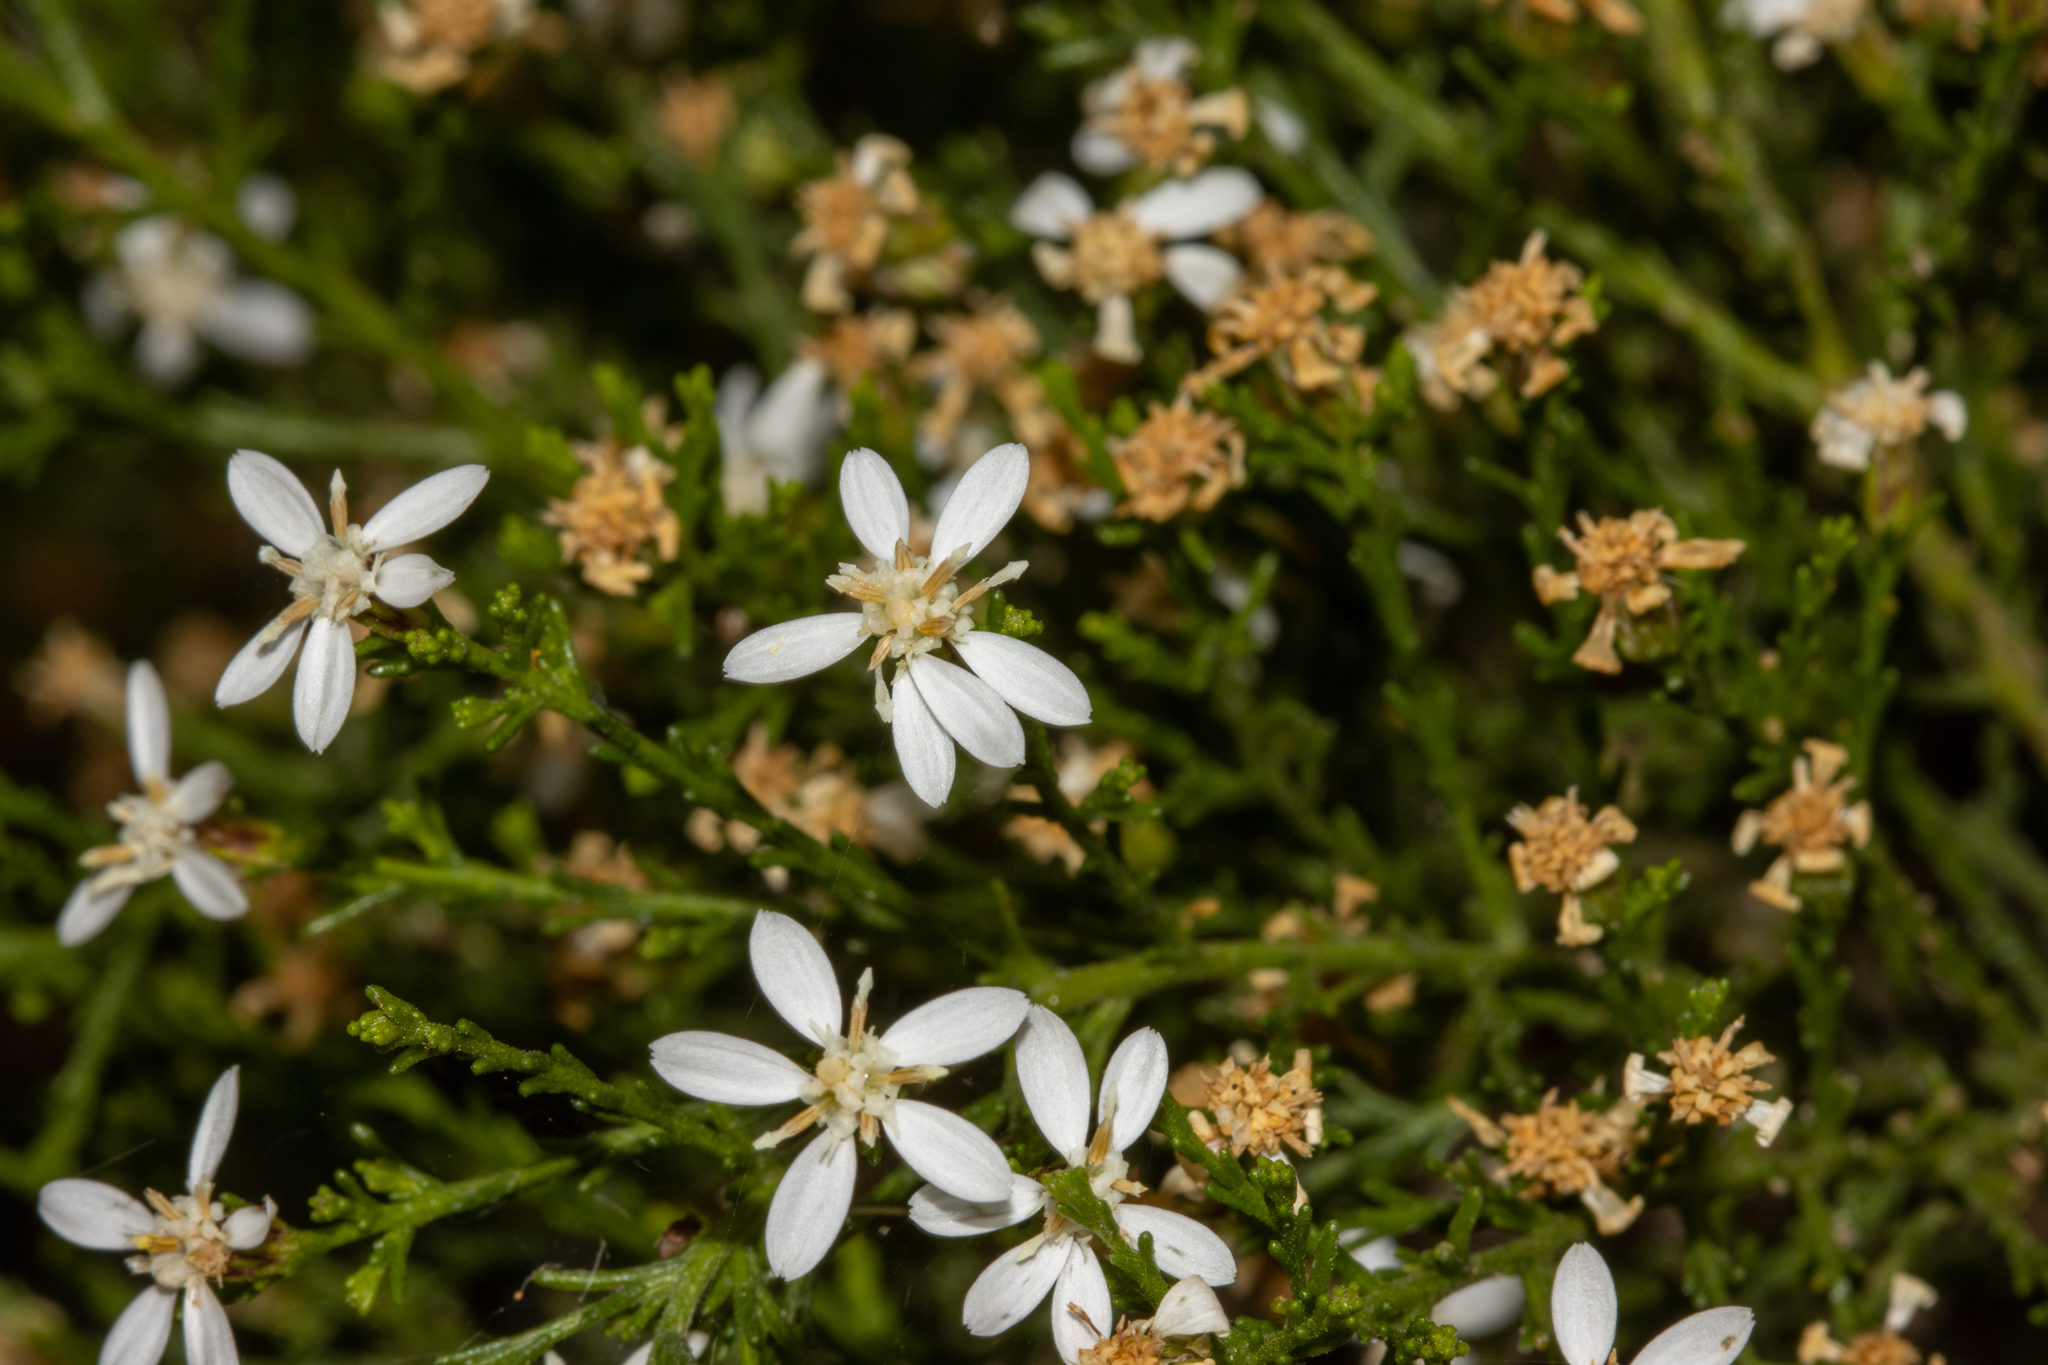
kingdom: Plantae
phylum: Tracheophyta
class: Magnoliopsida
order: Asterales
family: Asteraceae
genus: Olearia
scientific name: Olearia teretifolia
